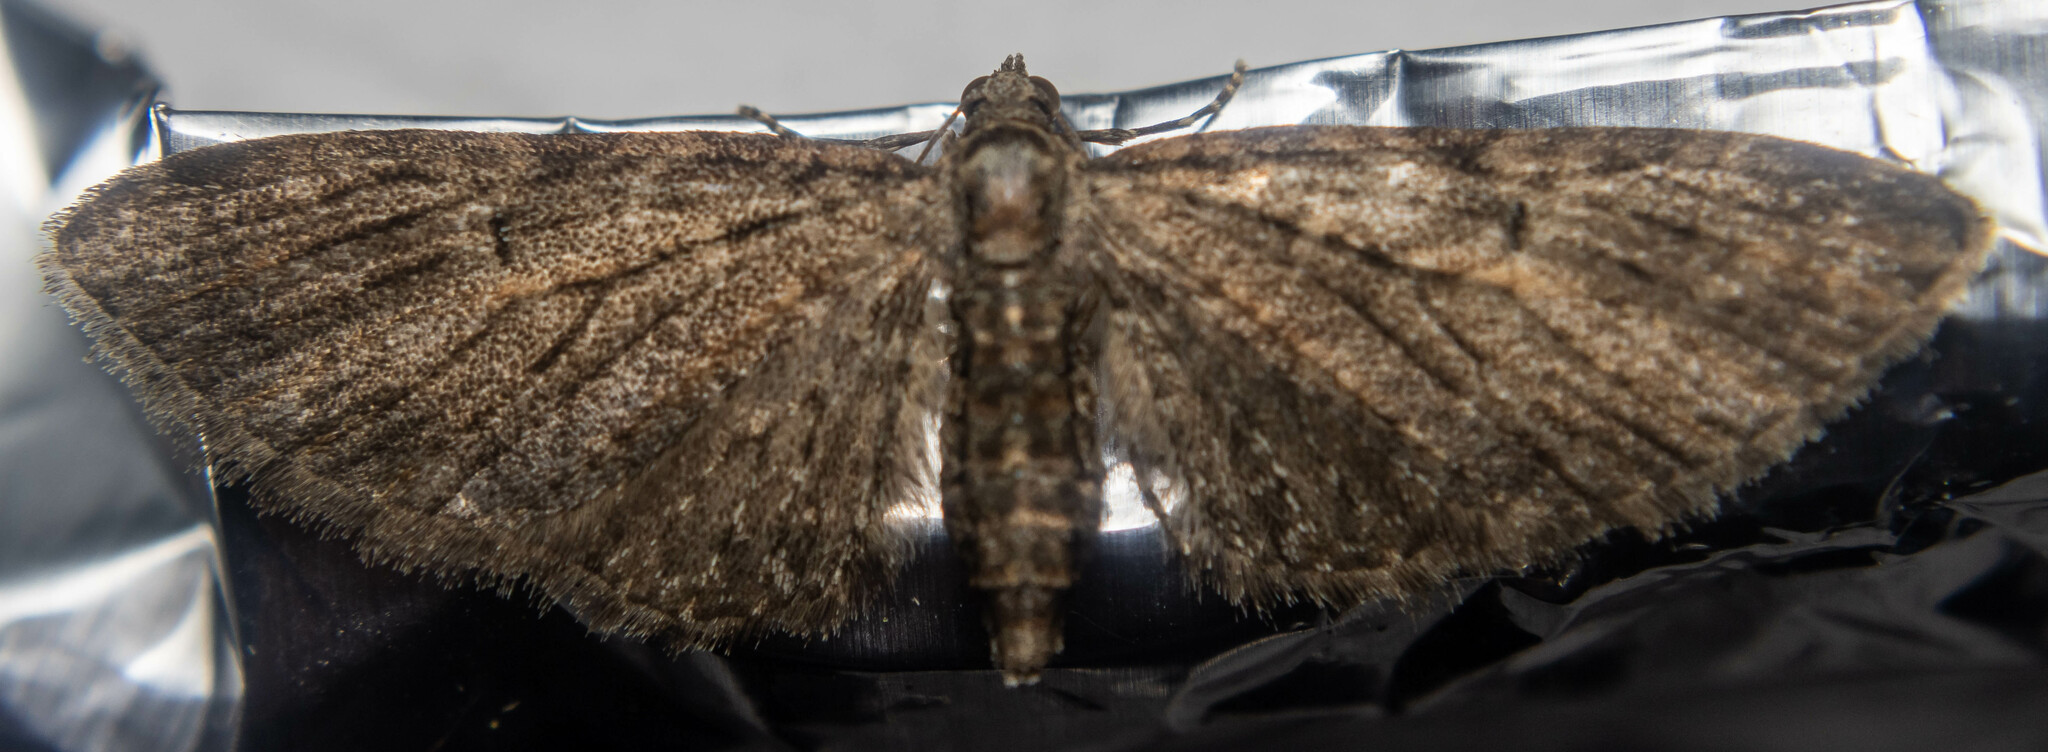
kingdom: Animalia
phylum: Arthropoda
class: Insecta
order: Lepidoptera
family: Geometridae
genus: Eupithecia
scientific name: Eupithecia abbreviata
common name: Brindled pug
